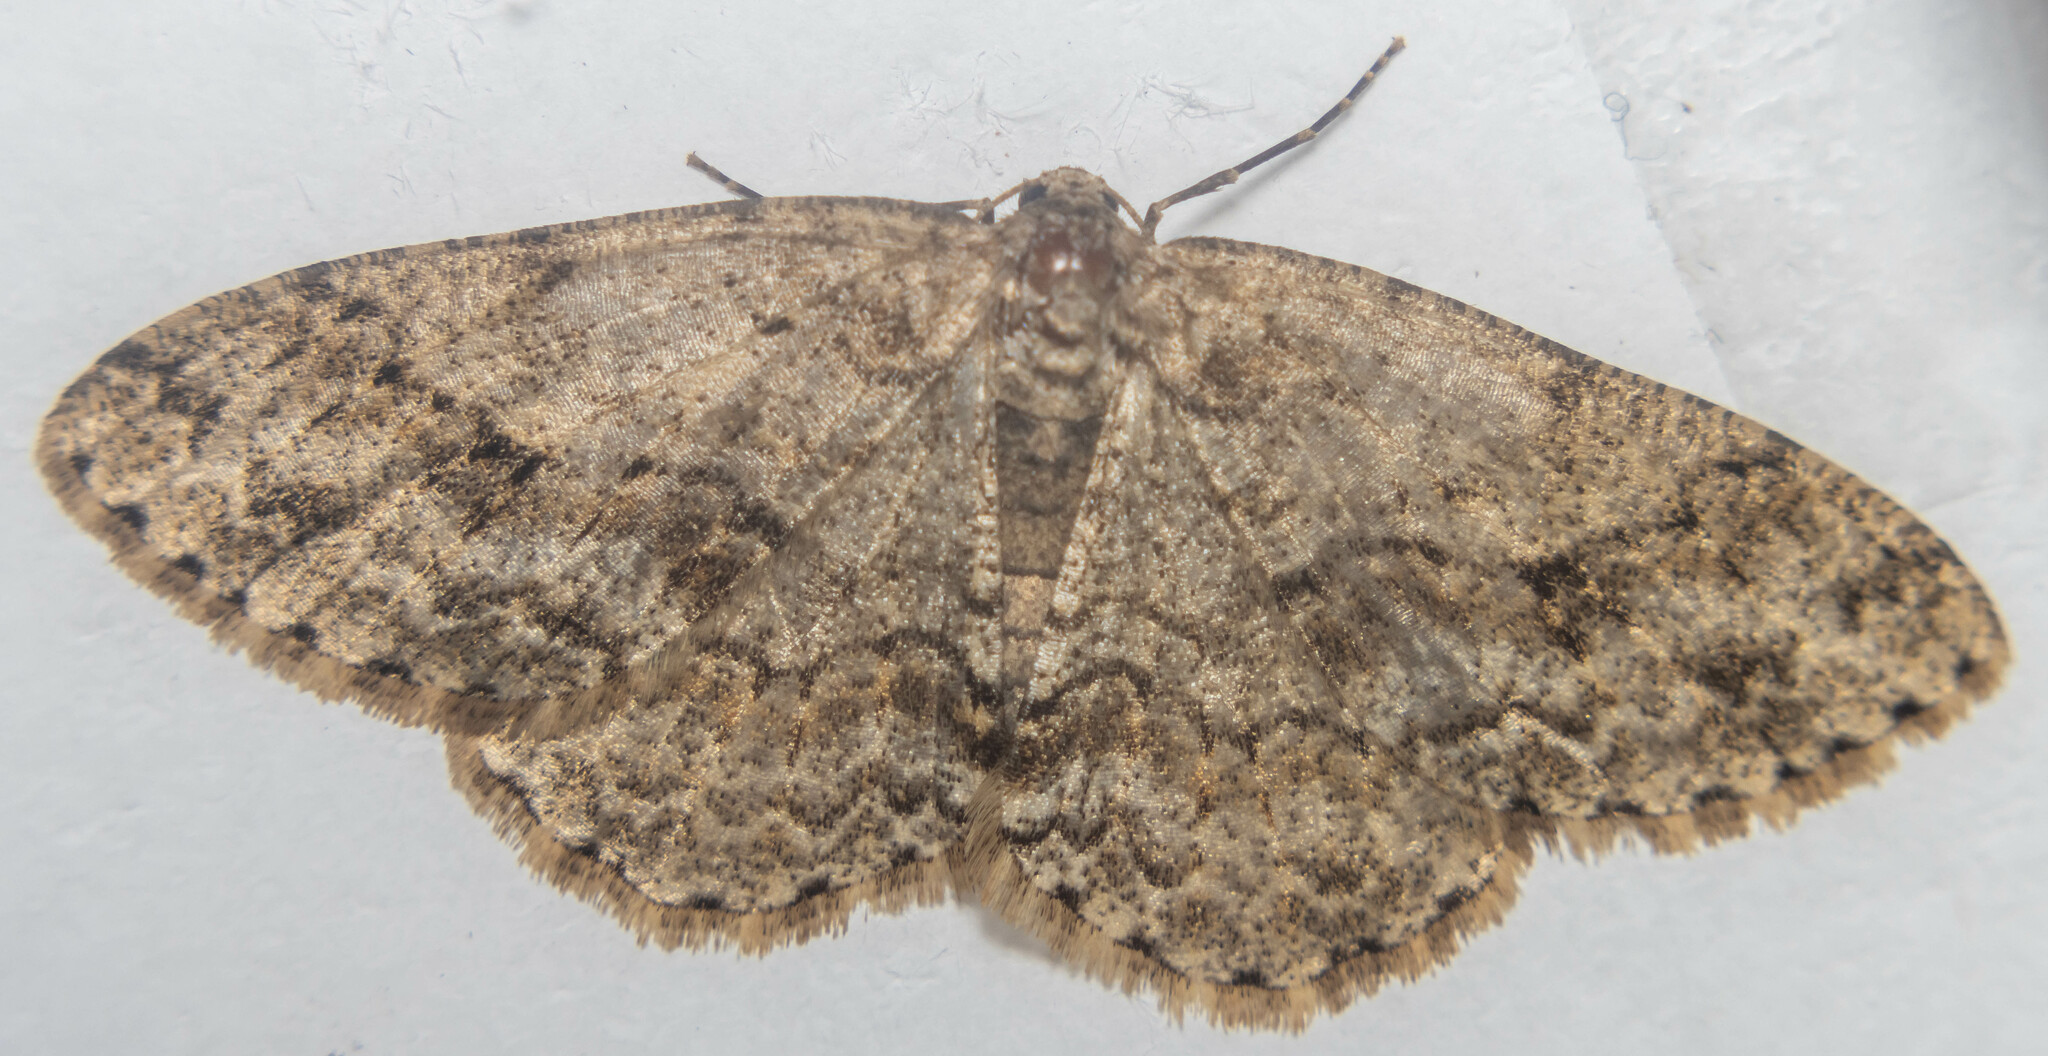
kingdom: Animalia
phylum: Arthropoda
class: Insecta
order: Lepidoptera
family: Geometridae
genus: Ectropis
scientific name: Ectropis crepuscularia
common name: Engrailed
